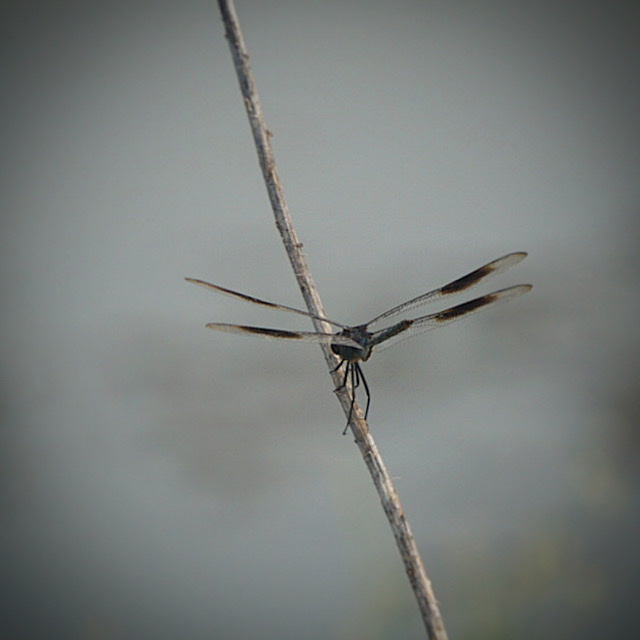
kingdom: Animalia
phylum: Arthropoda
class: Insecta
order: Odonata
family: Libellulidae
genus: Brachymesia
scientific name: Brachymesia gravida
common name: Four-spotted pennant
